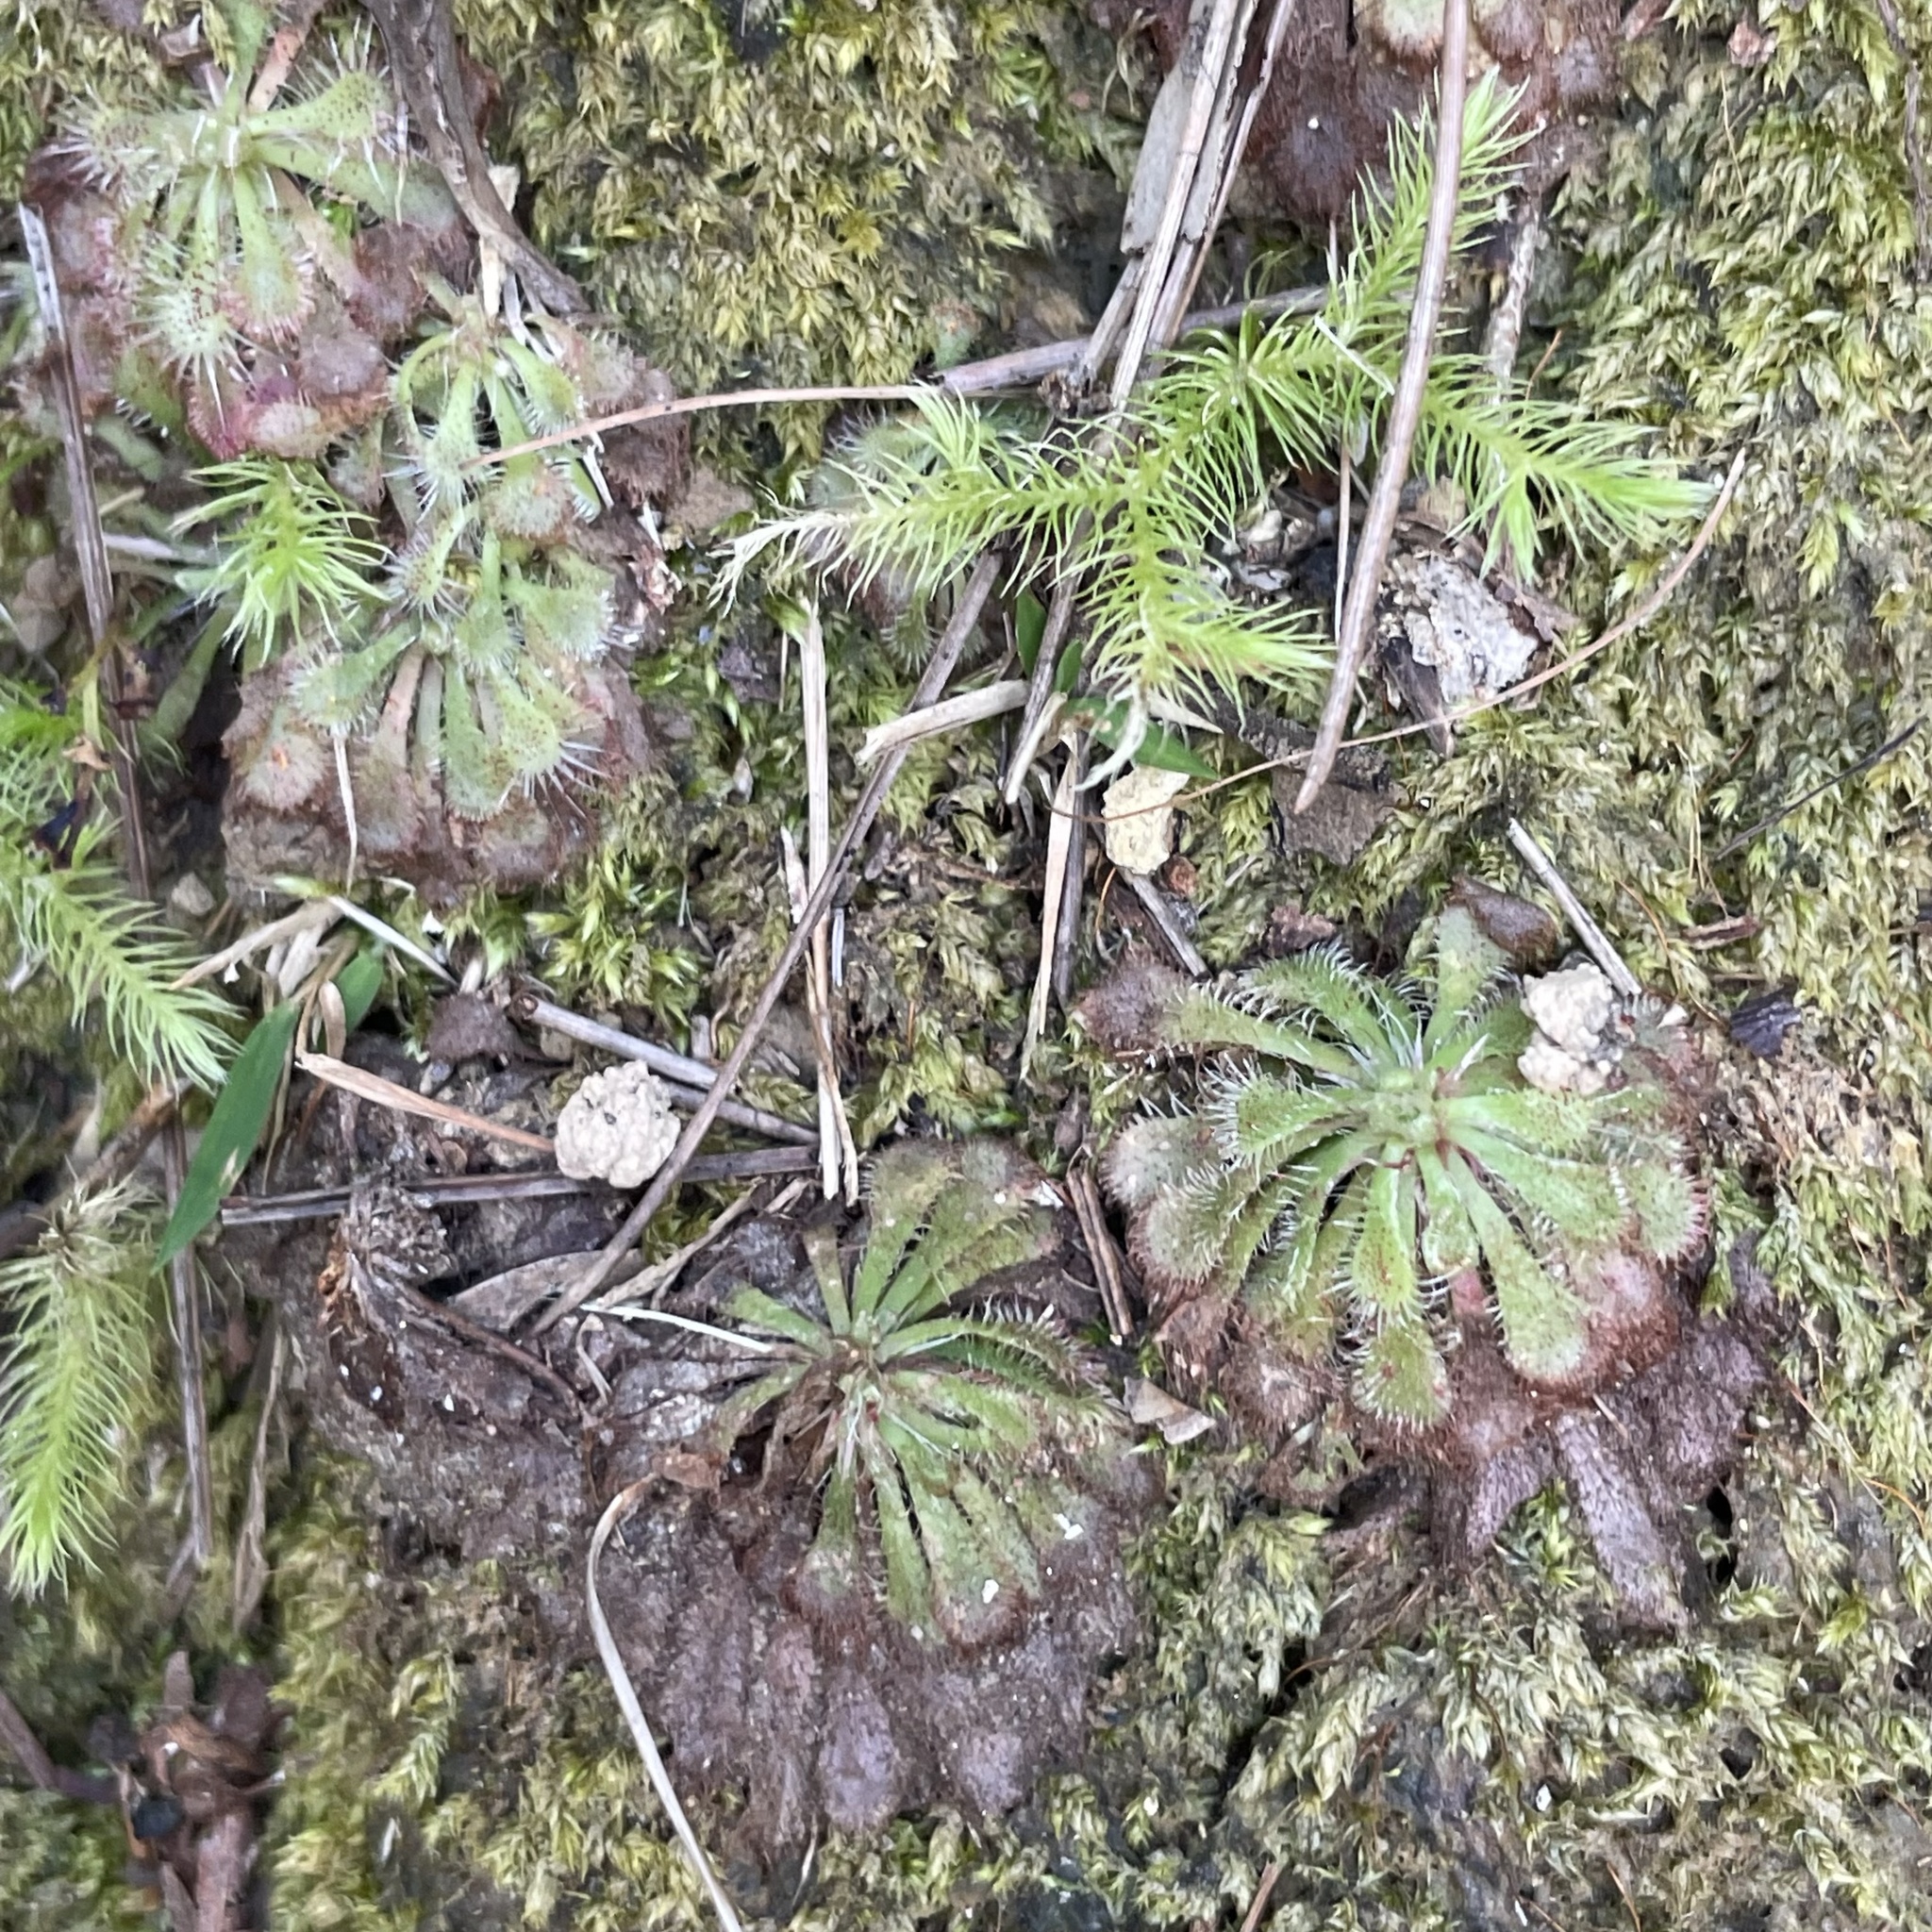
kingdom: Plantae
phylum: Tracheophyta
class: Magnoliopsida
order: Caryophyllales
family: Droseraceae
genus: Drosera
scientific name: Drosera spatulata
